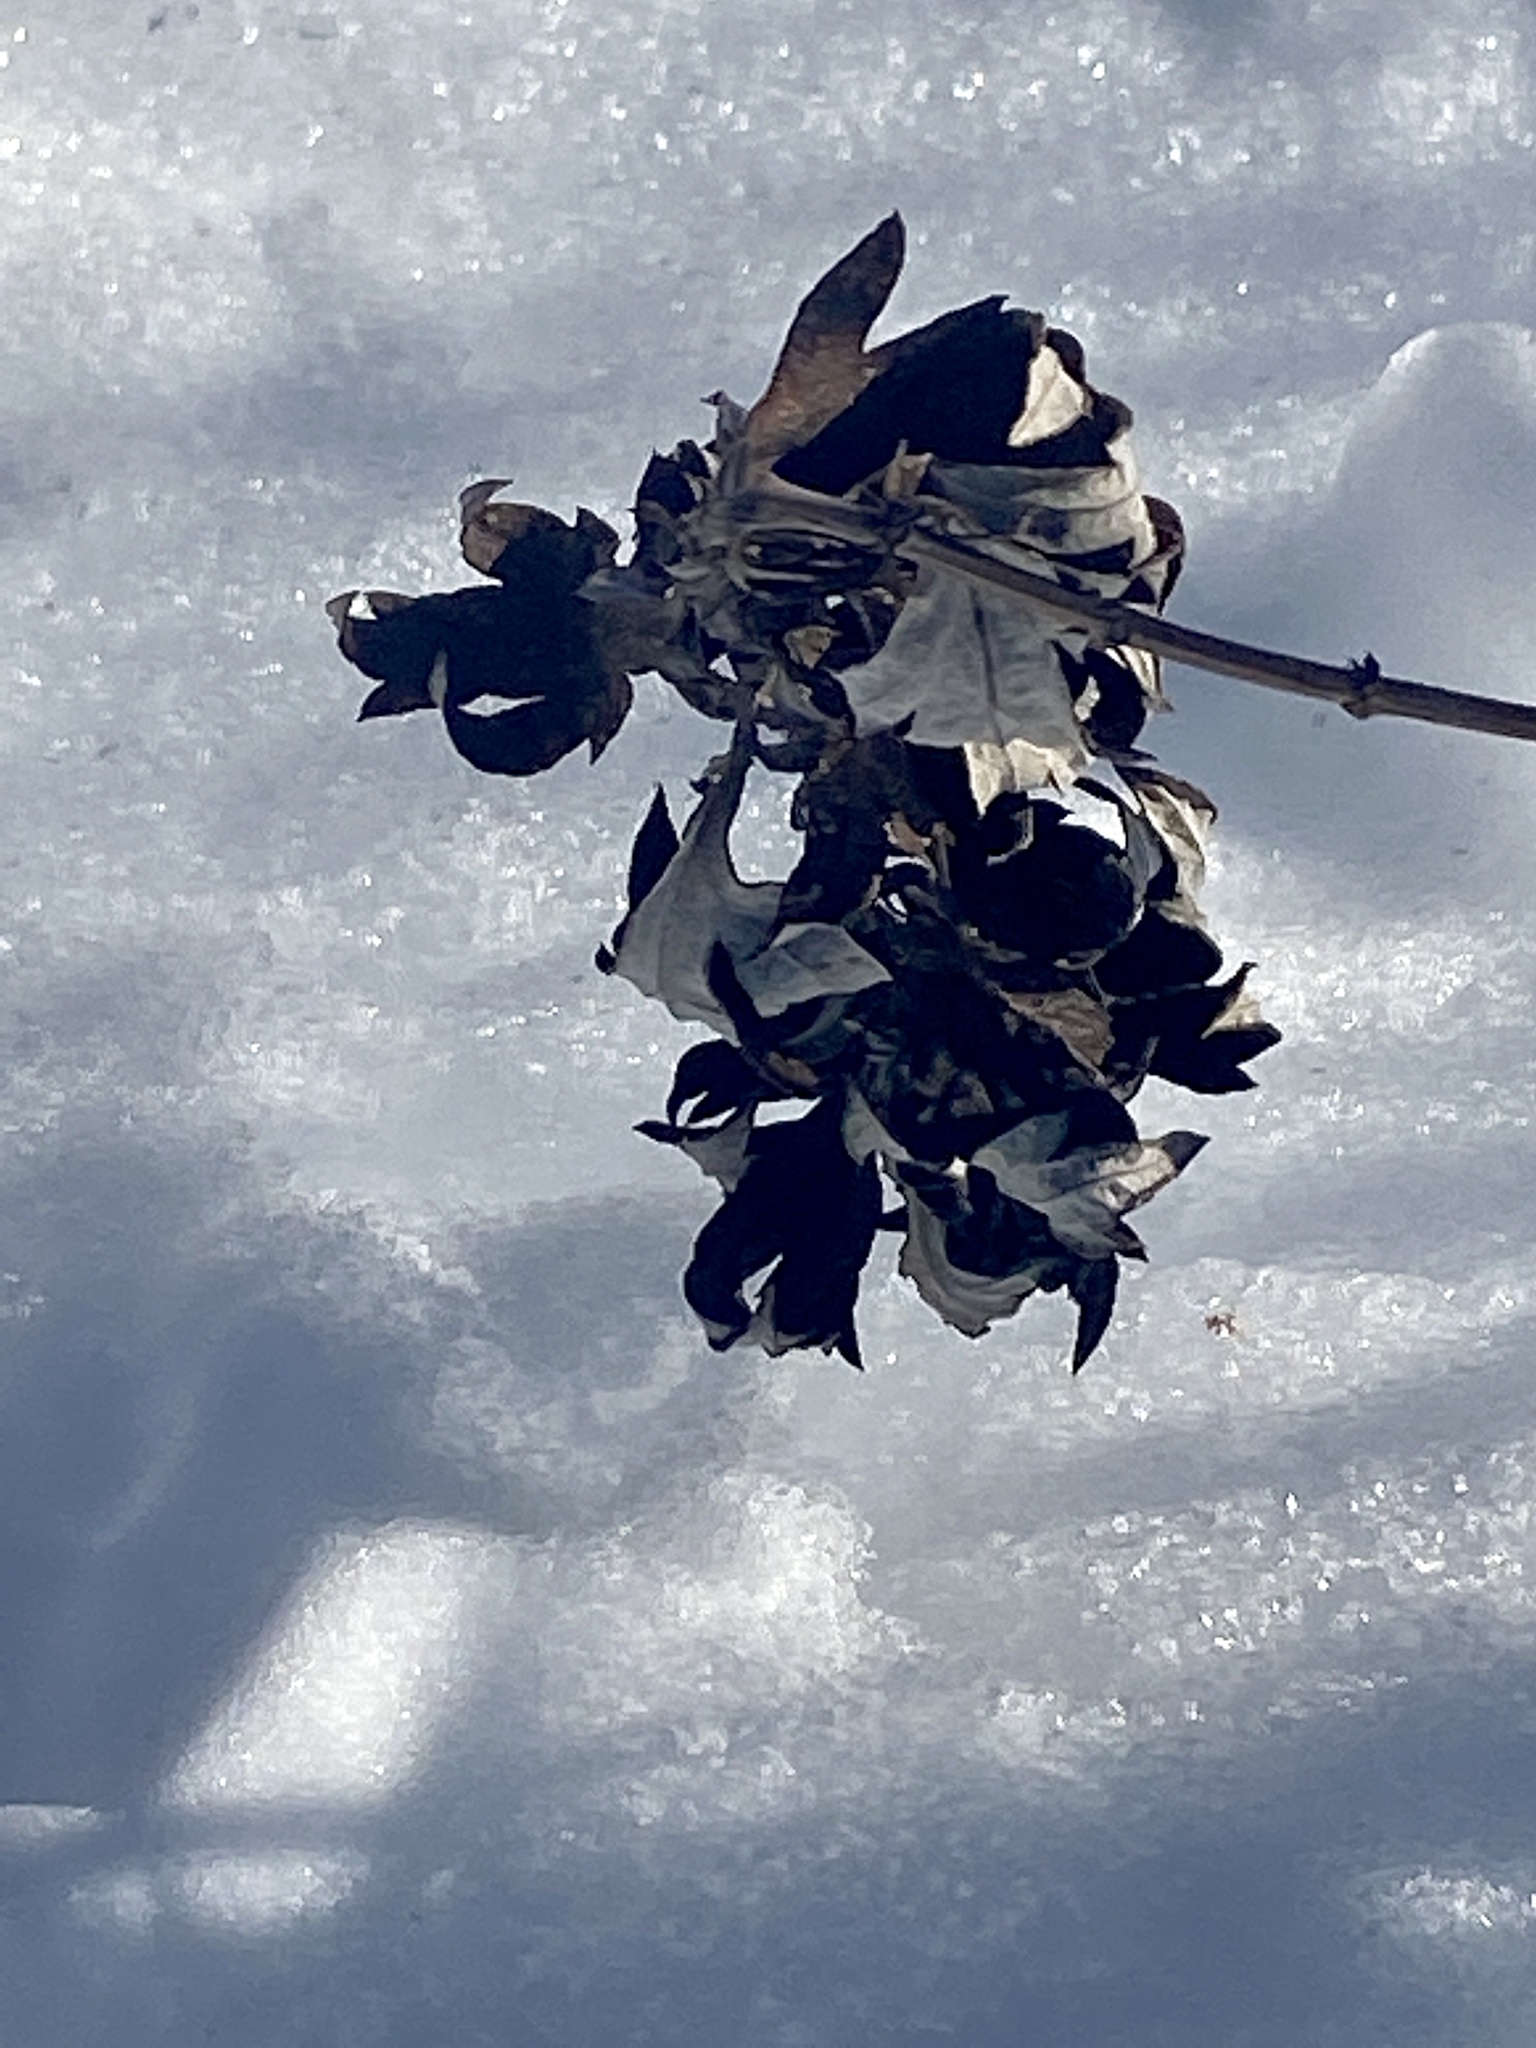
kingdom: Plantae
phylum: Tracheophyta
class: Magnoliopsida
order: Asterales
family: Asteraceae
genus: Artemisia
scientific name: Artemisia vulgaris
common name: Mugwort
